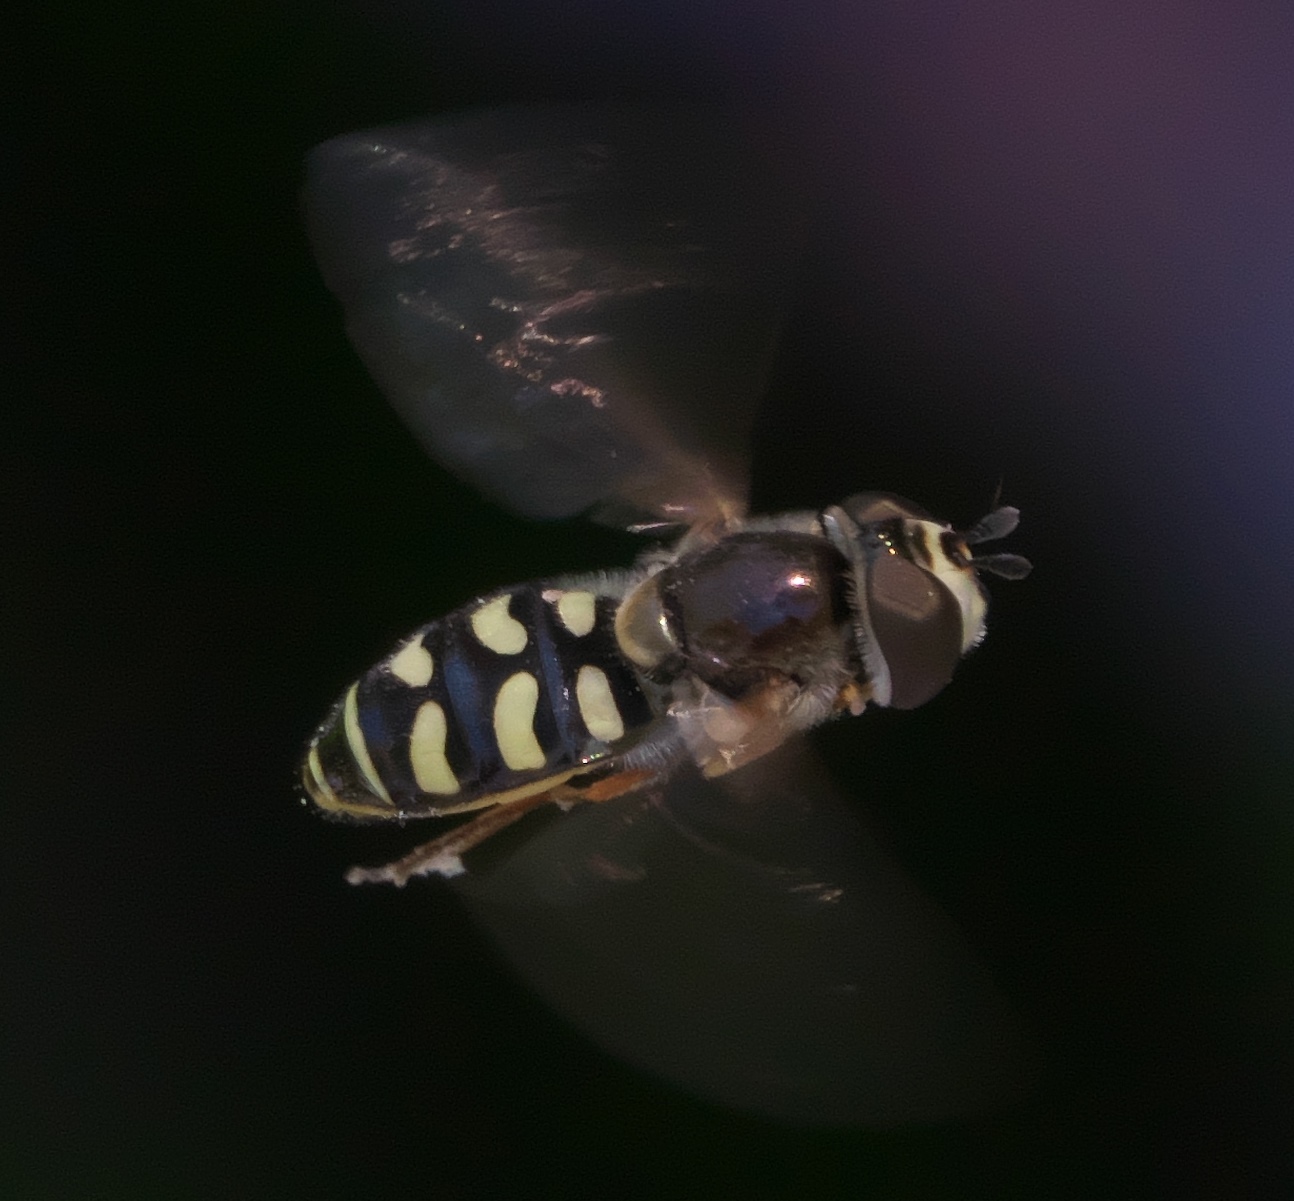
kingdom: Animalia
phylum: Arthropoda
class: Insecta
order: Diptera
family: Syrphidae
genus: Eupeodes
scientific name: Eupeodes volucris
